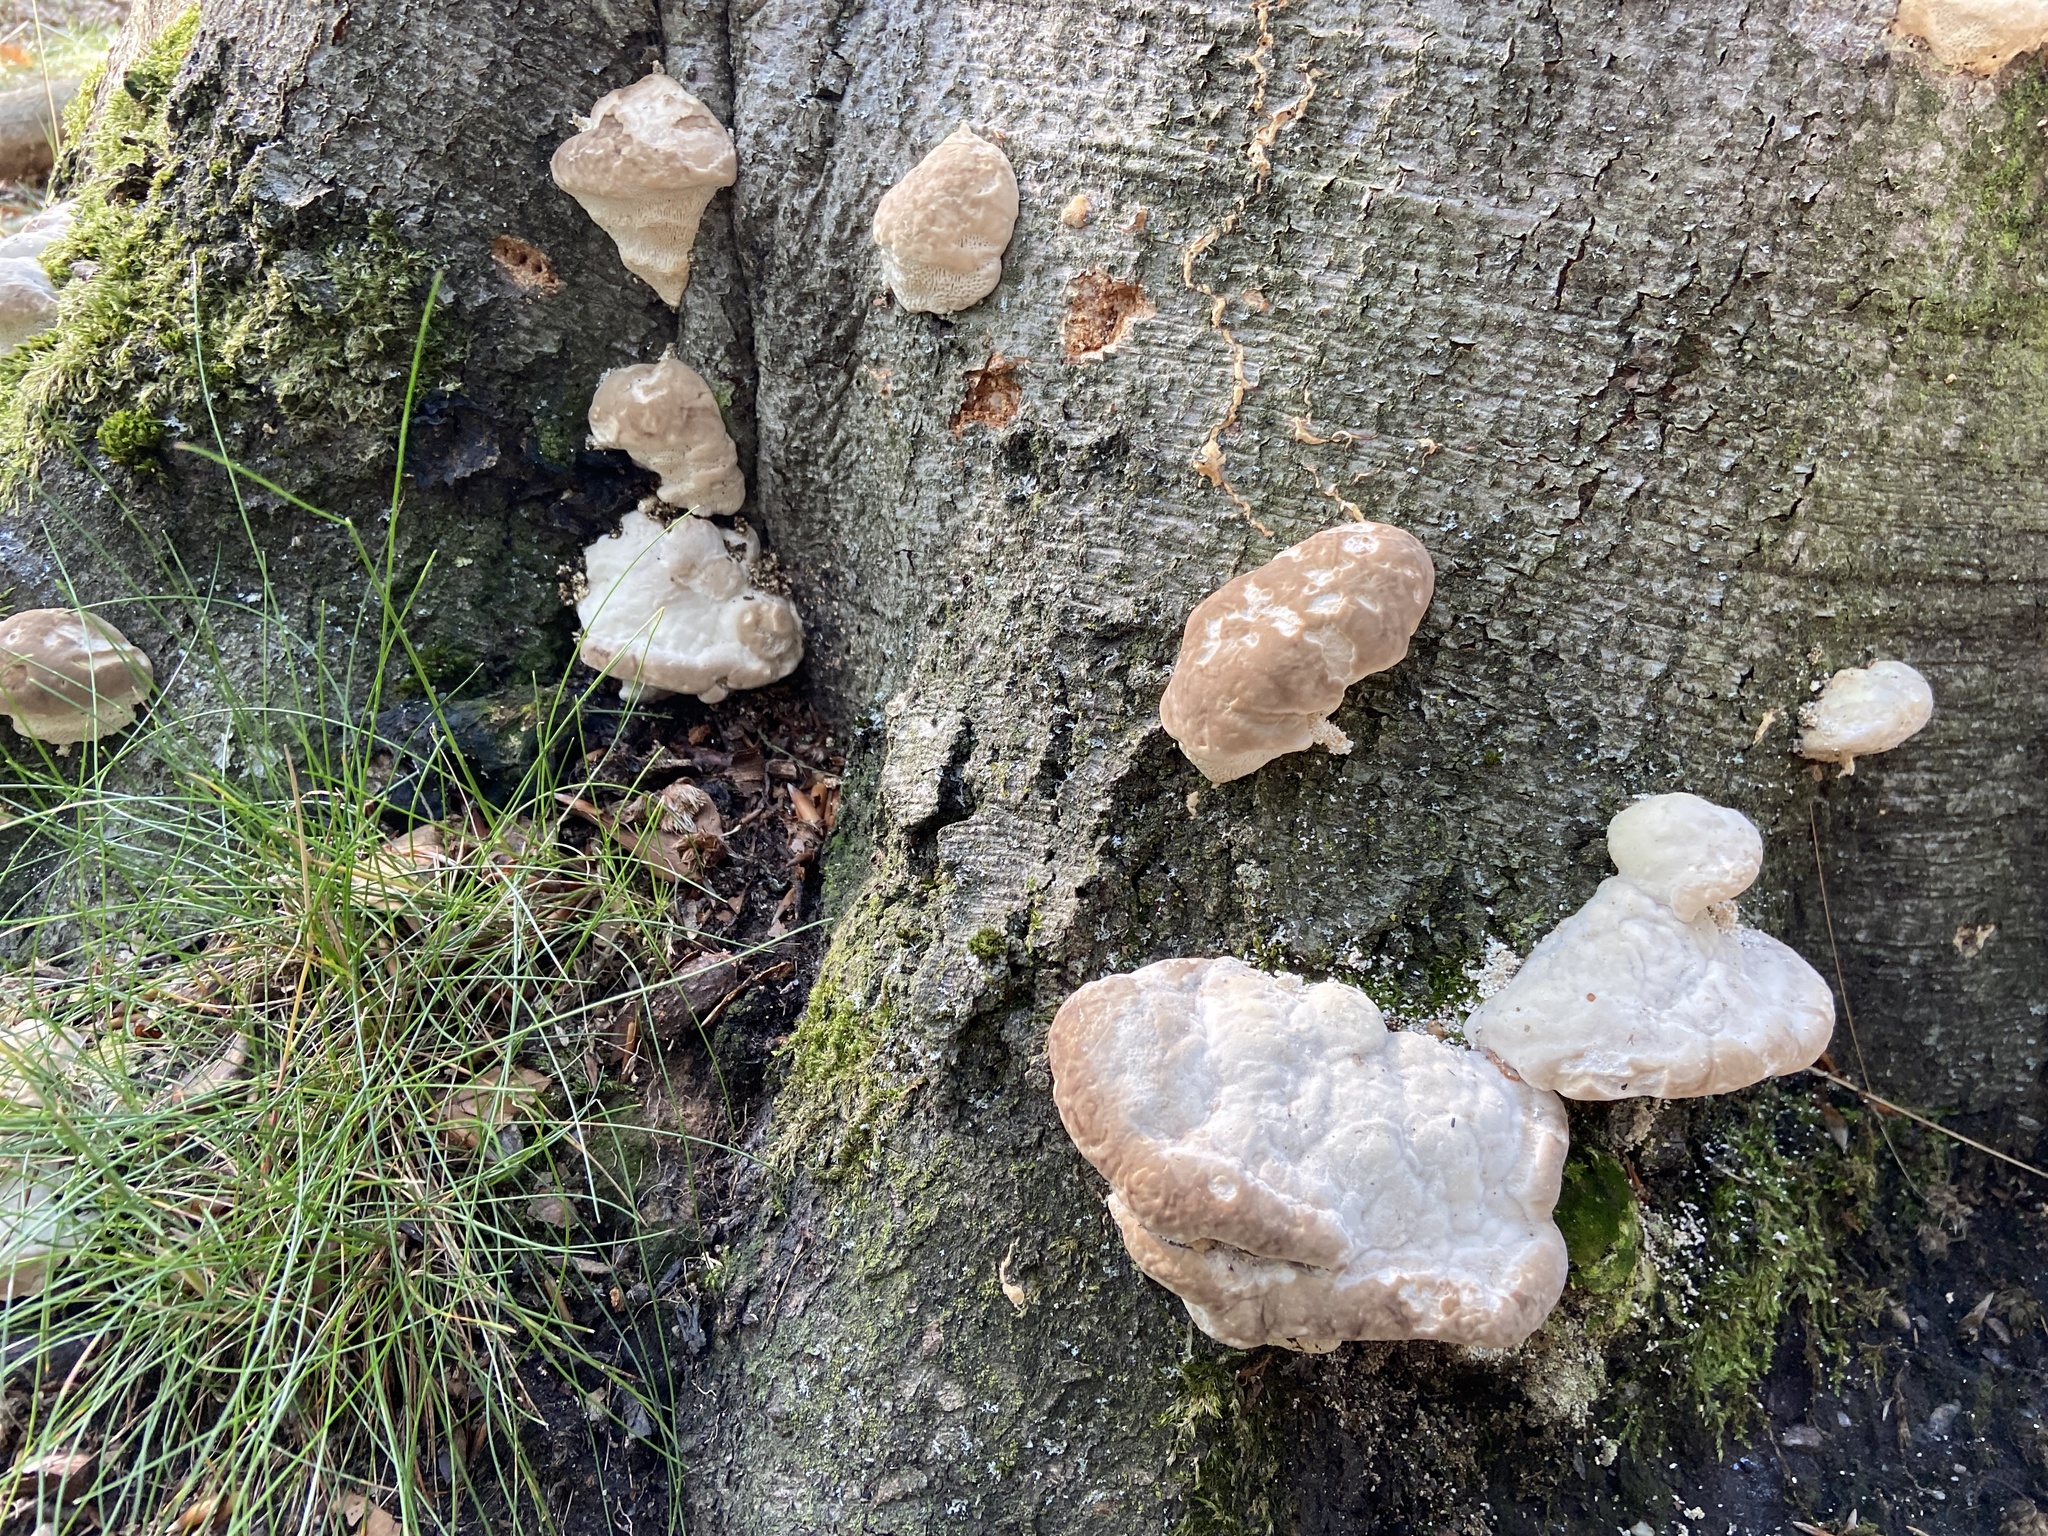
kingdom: Fungi
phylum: Basidiomycota
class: Agaricomycetes
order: Polyporales
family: Polyporaceae
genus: Trametes
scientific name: Trametes gibbosa
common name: Lumpy bracket
